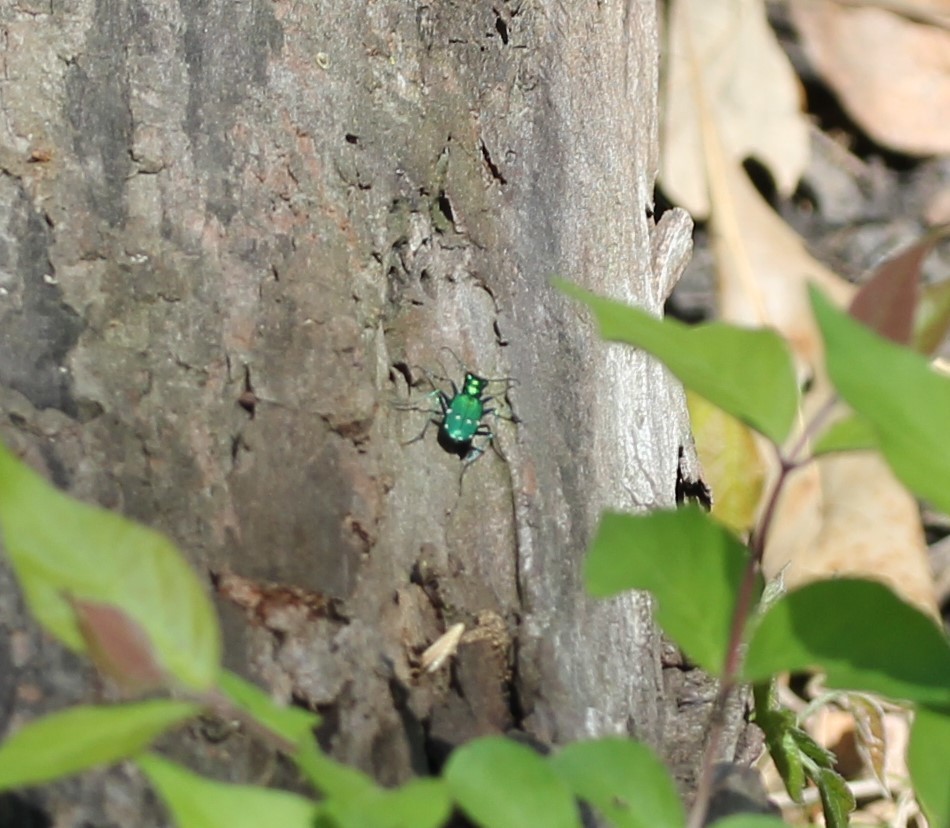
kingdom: Animalia
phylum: Arthropoda
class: Insecta
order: Coleoptera
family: Carabidae
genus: Cicindela
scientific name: Cicindela sexguttata
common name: Six-spotted tiger beetle
